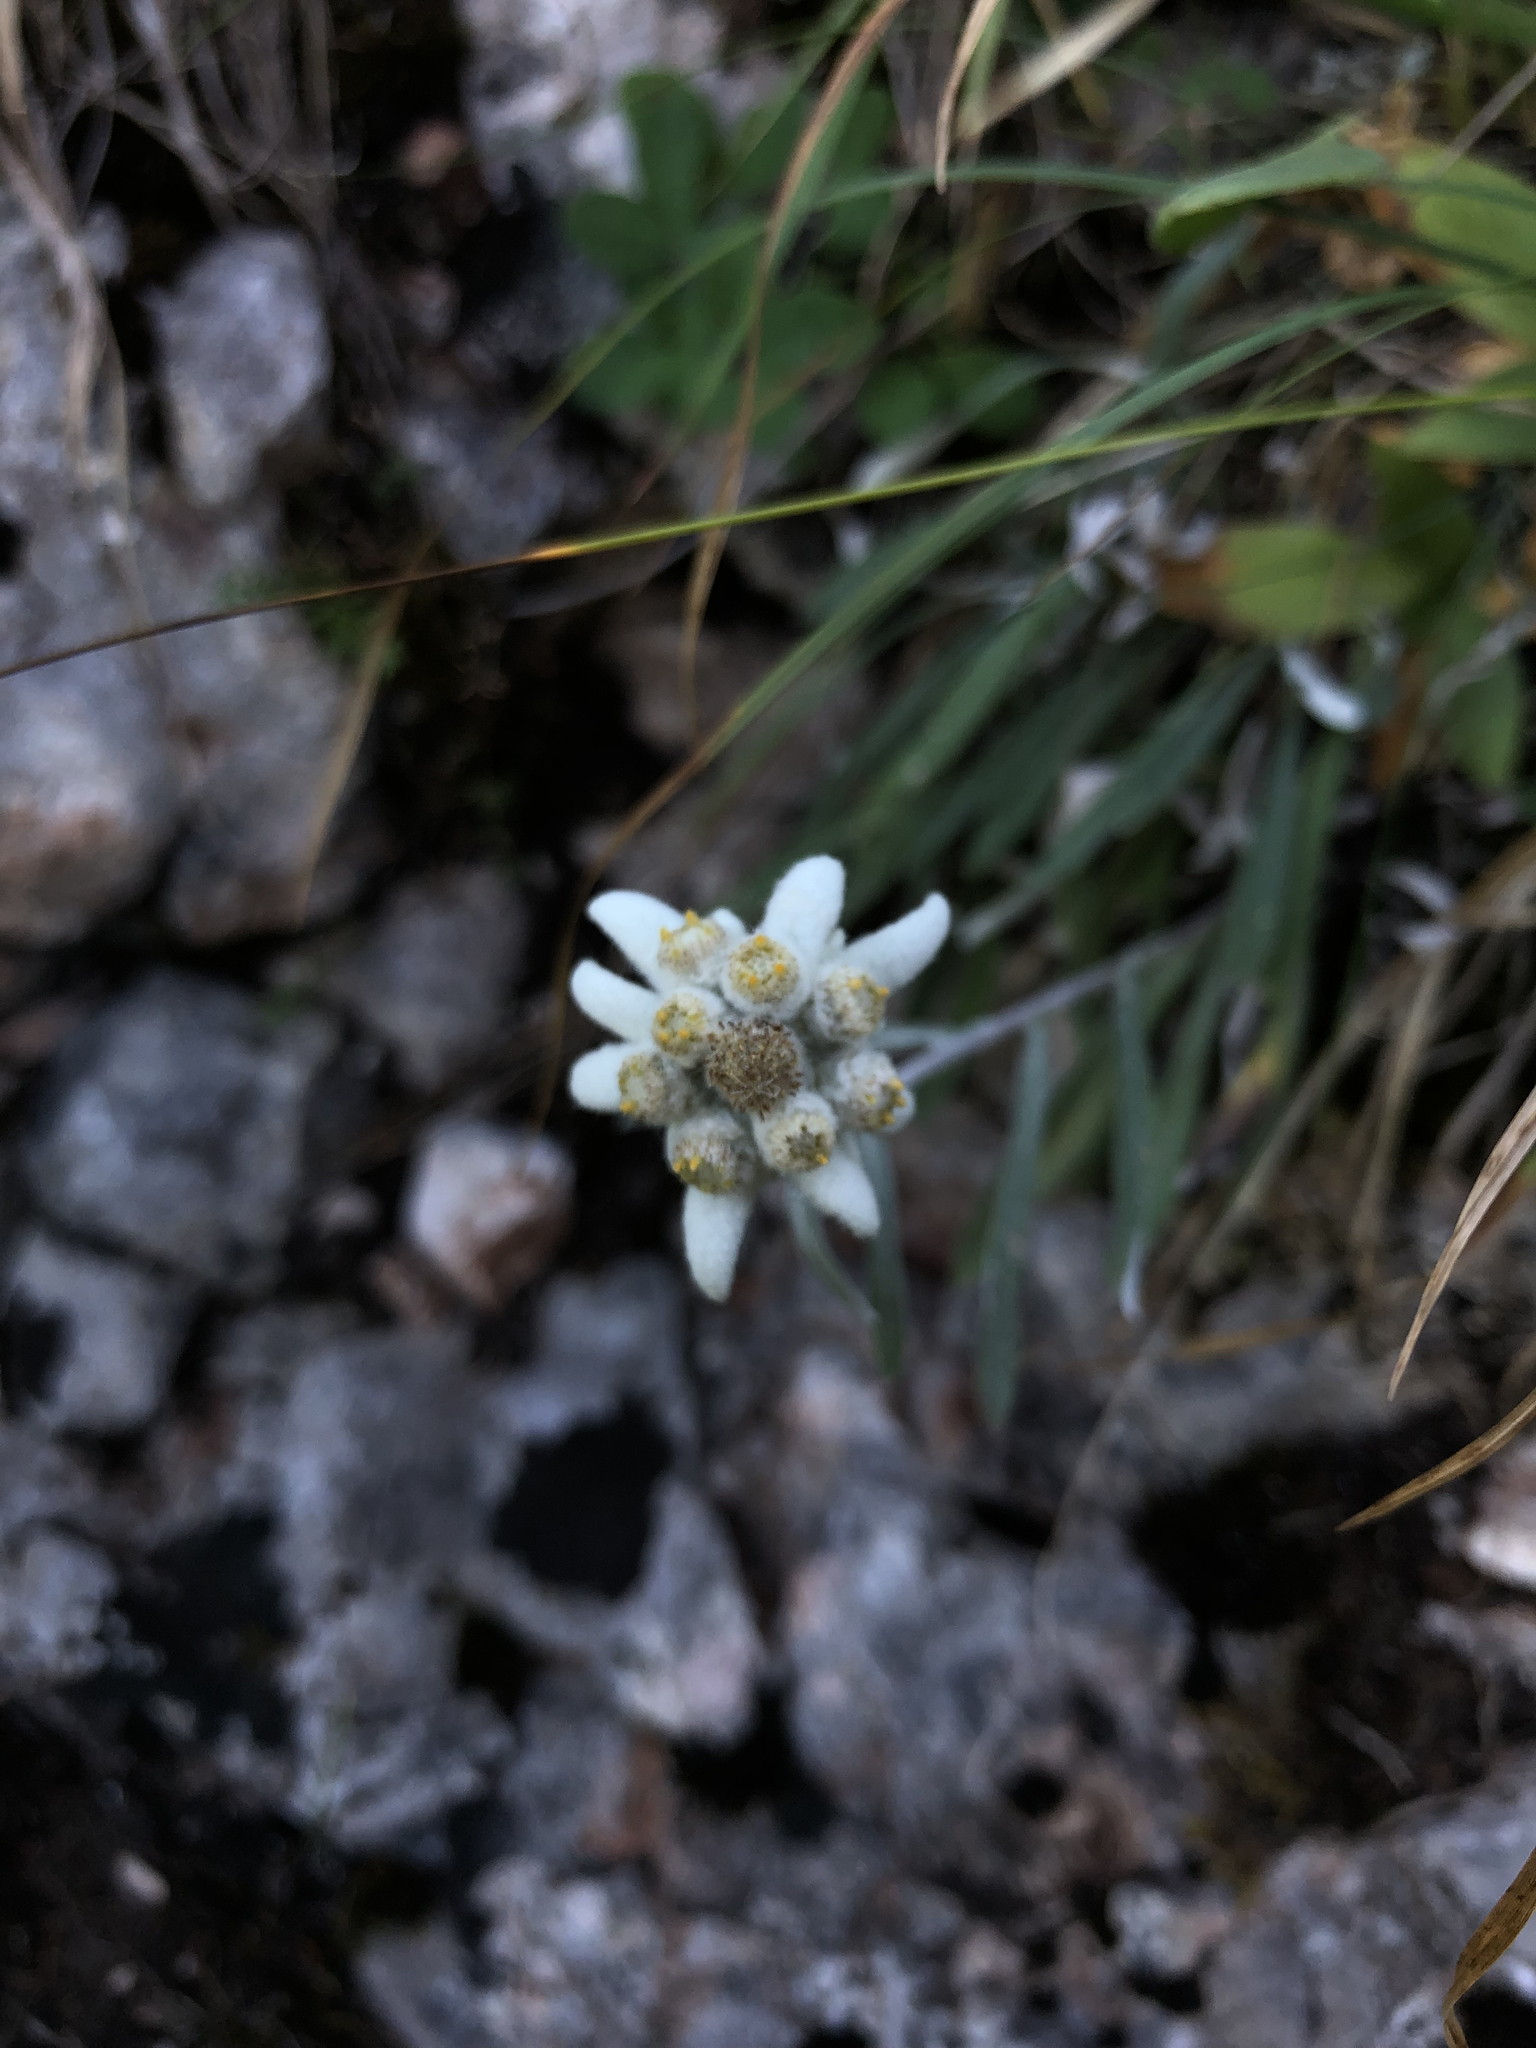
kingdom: Plantae
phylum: Tracheophyta
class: Magnoliopsida
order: Asterales
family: Asteraceae
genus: Leontopodium
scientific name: Leontopodium nivale
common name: Edelweiss
